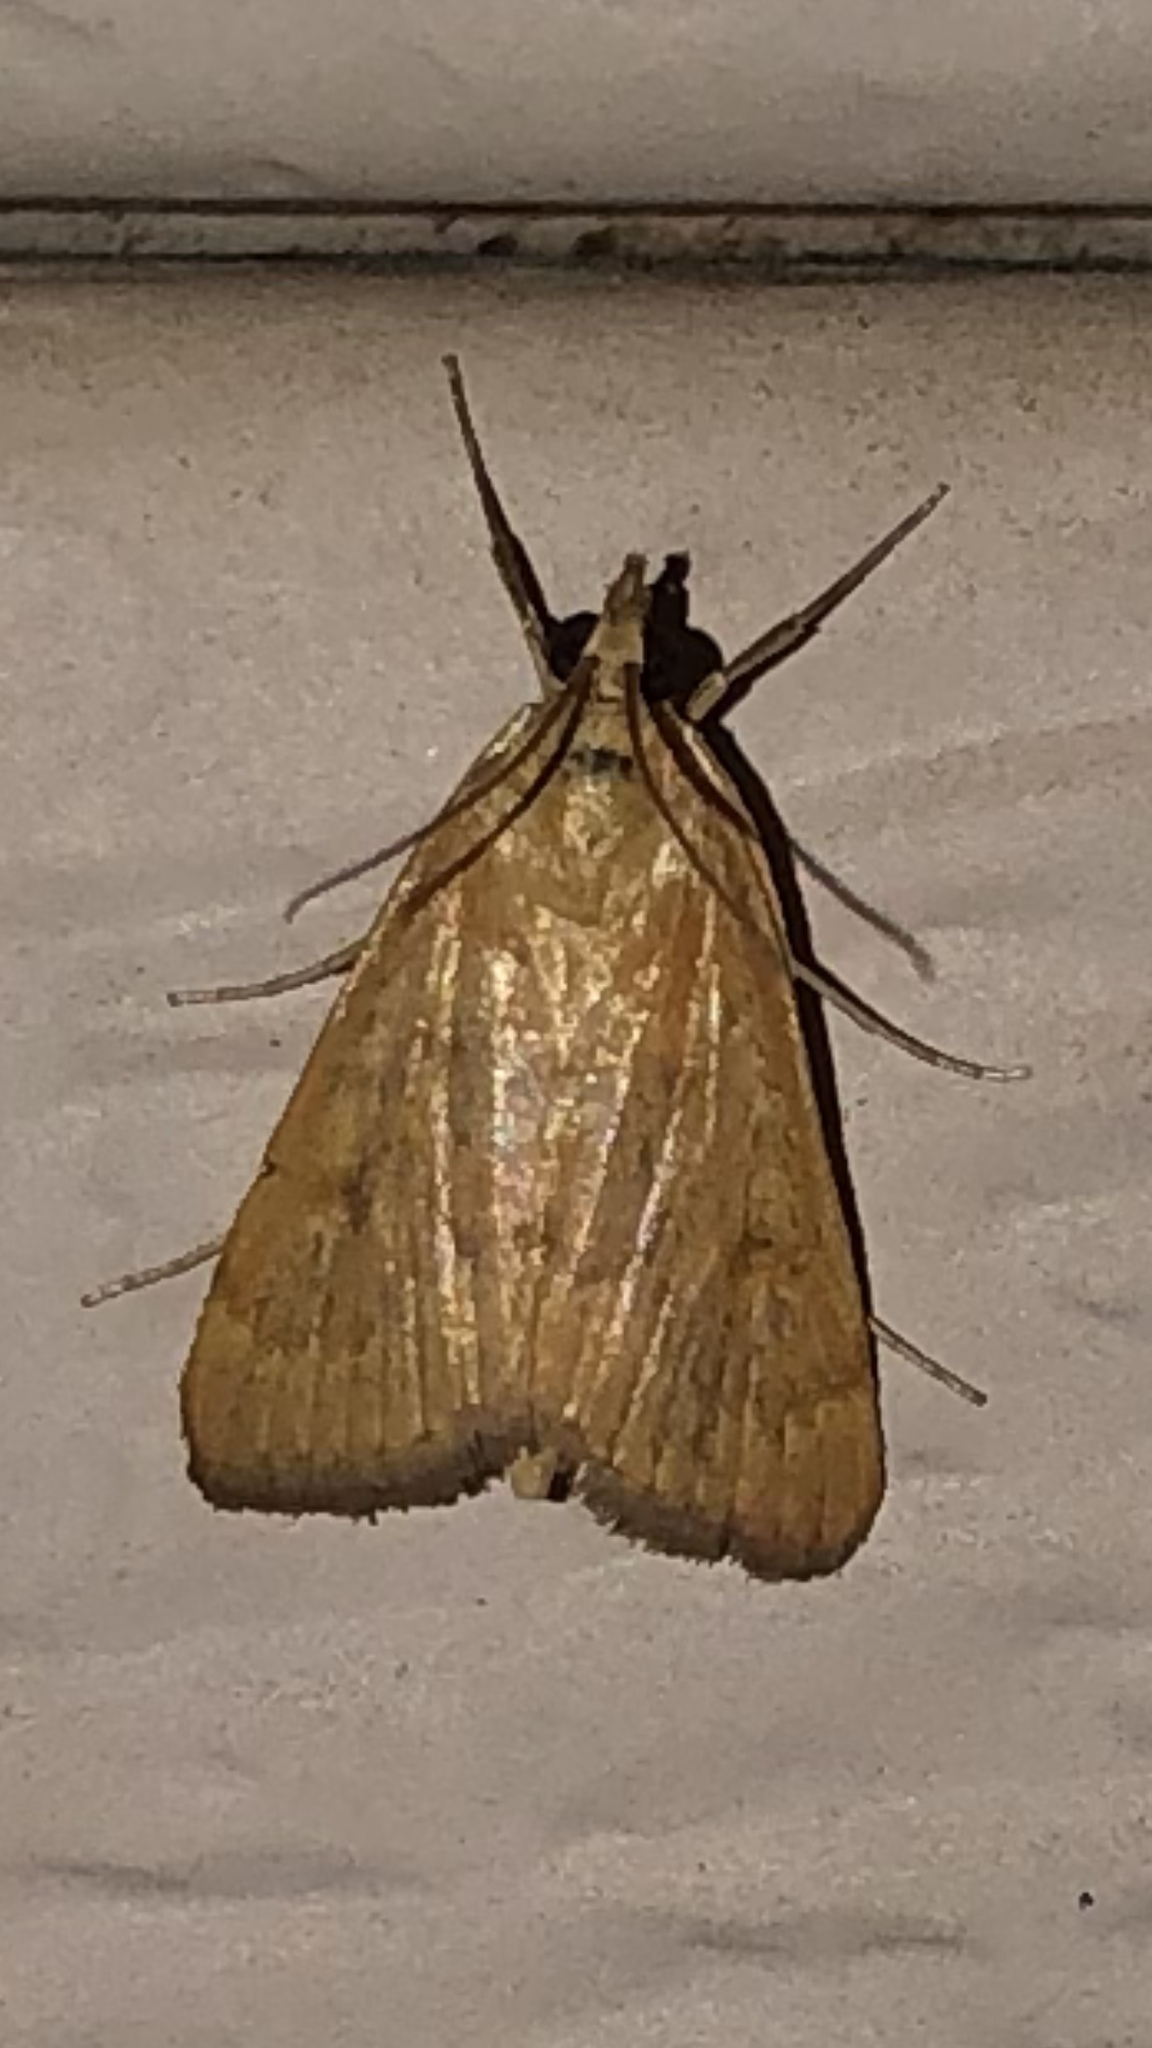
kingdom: Animalia
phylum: Arthropoda
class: Insecta
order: Lepidoptera
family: Crambidae
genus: Achyra
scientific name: Achyra rantalis
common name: Garden webworm
